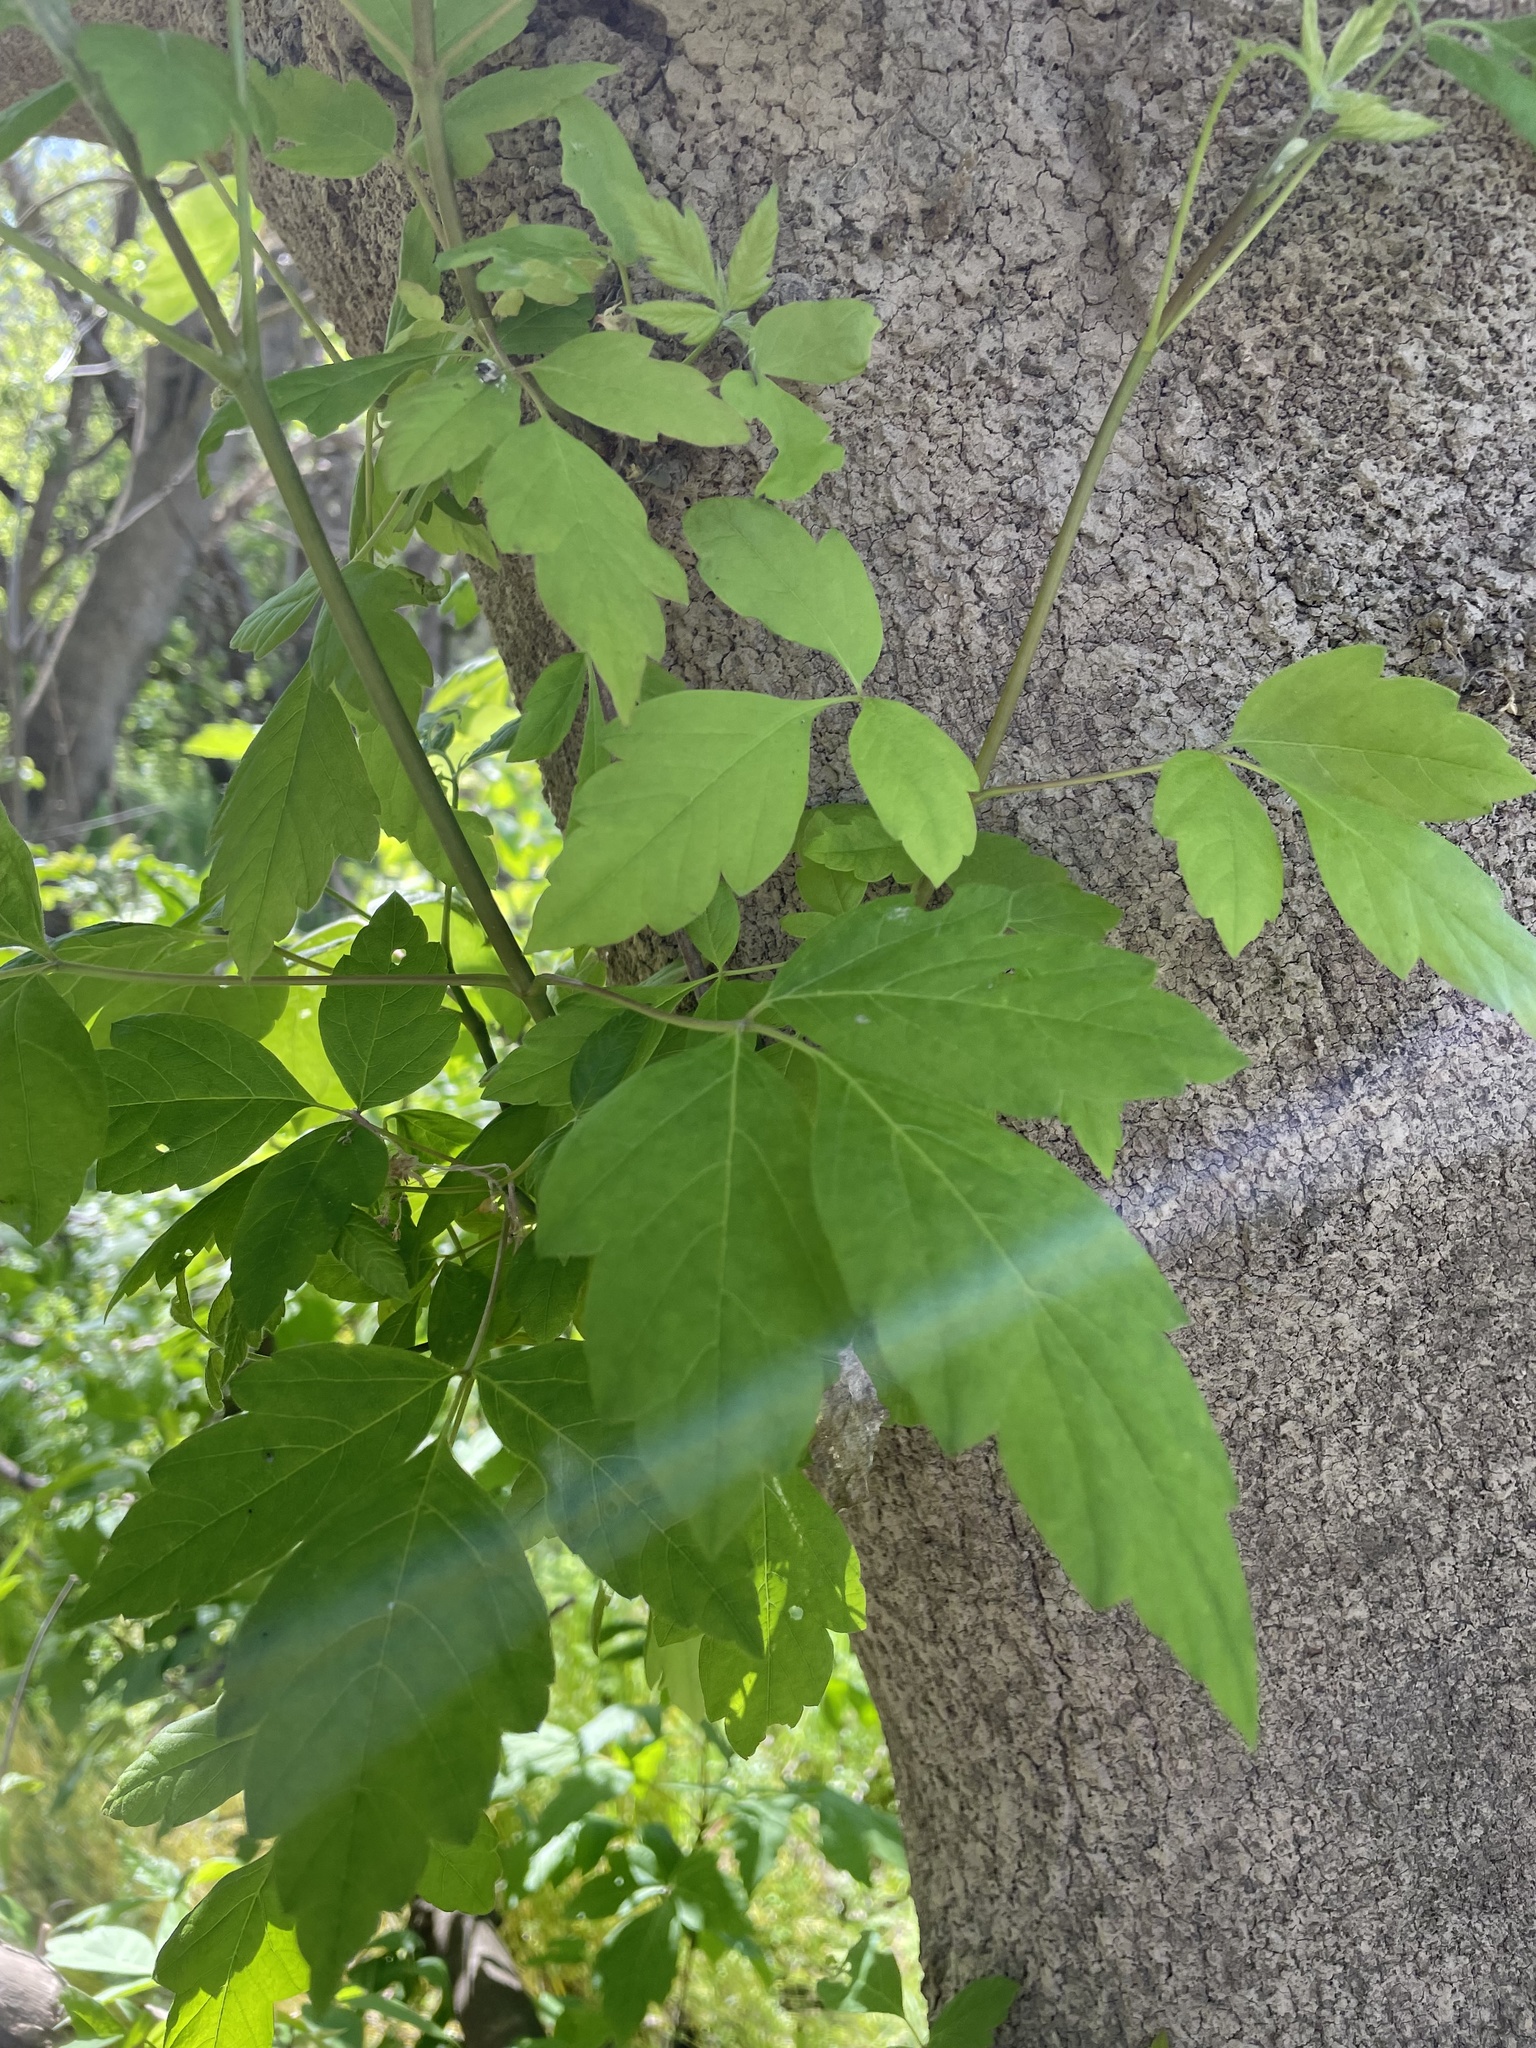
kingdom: Plantae
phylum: Tracheophyta
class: Magnoliopsida
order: Sapindales
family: Sapindaceae
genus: Acer
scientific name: Acer negundo
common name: Ashleaf maple
